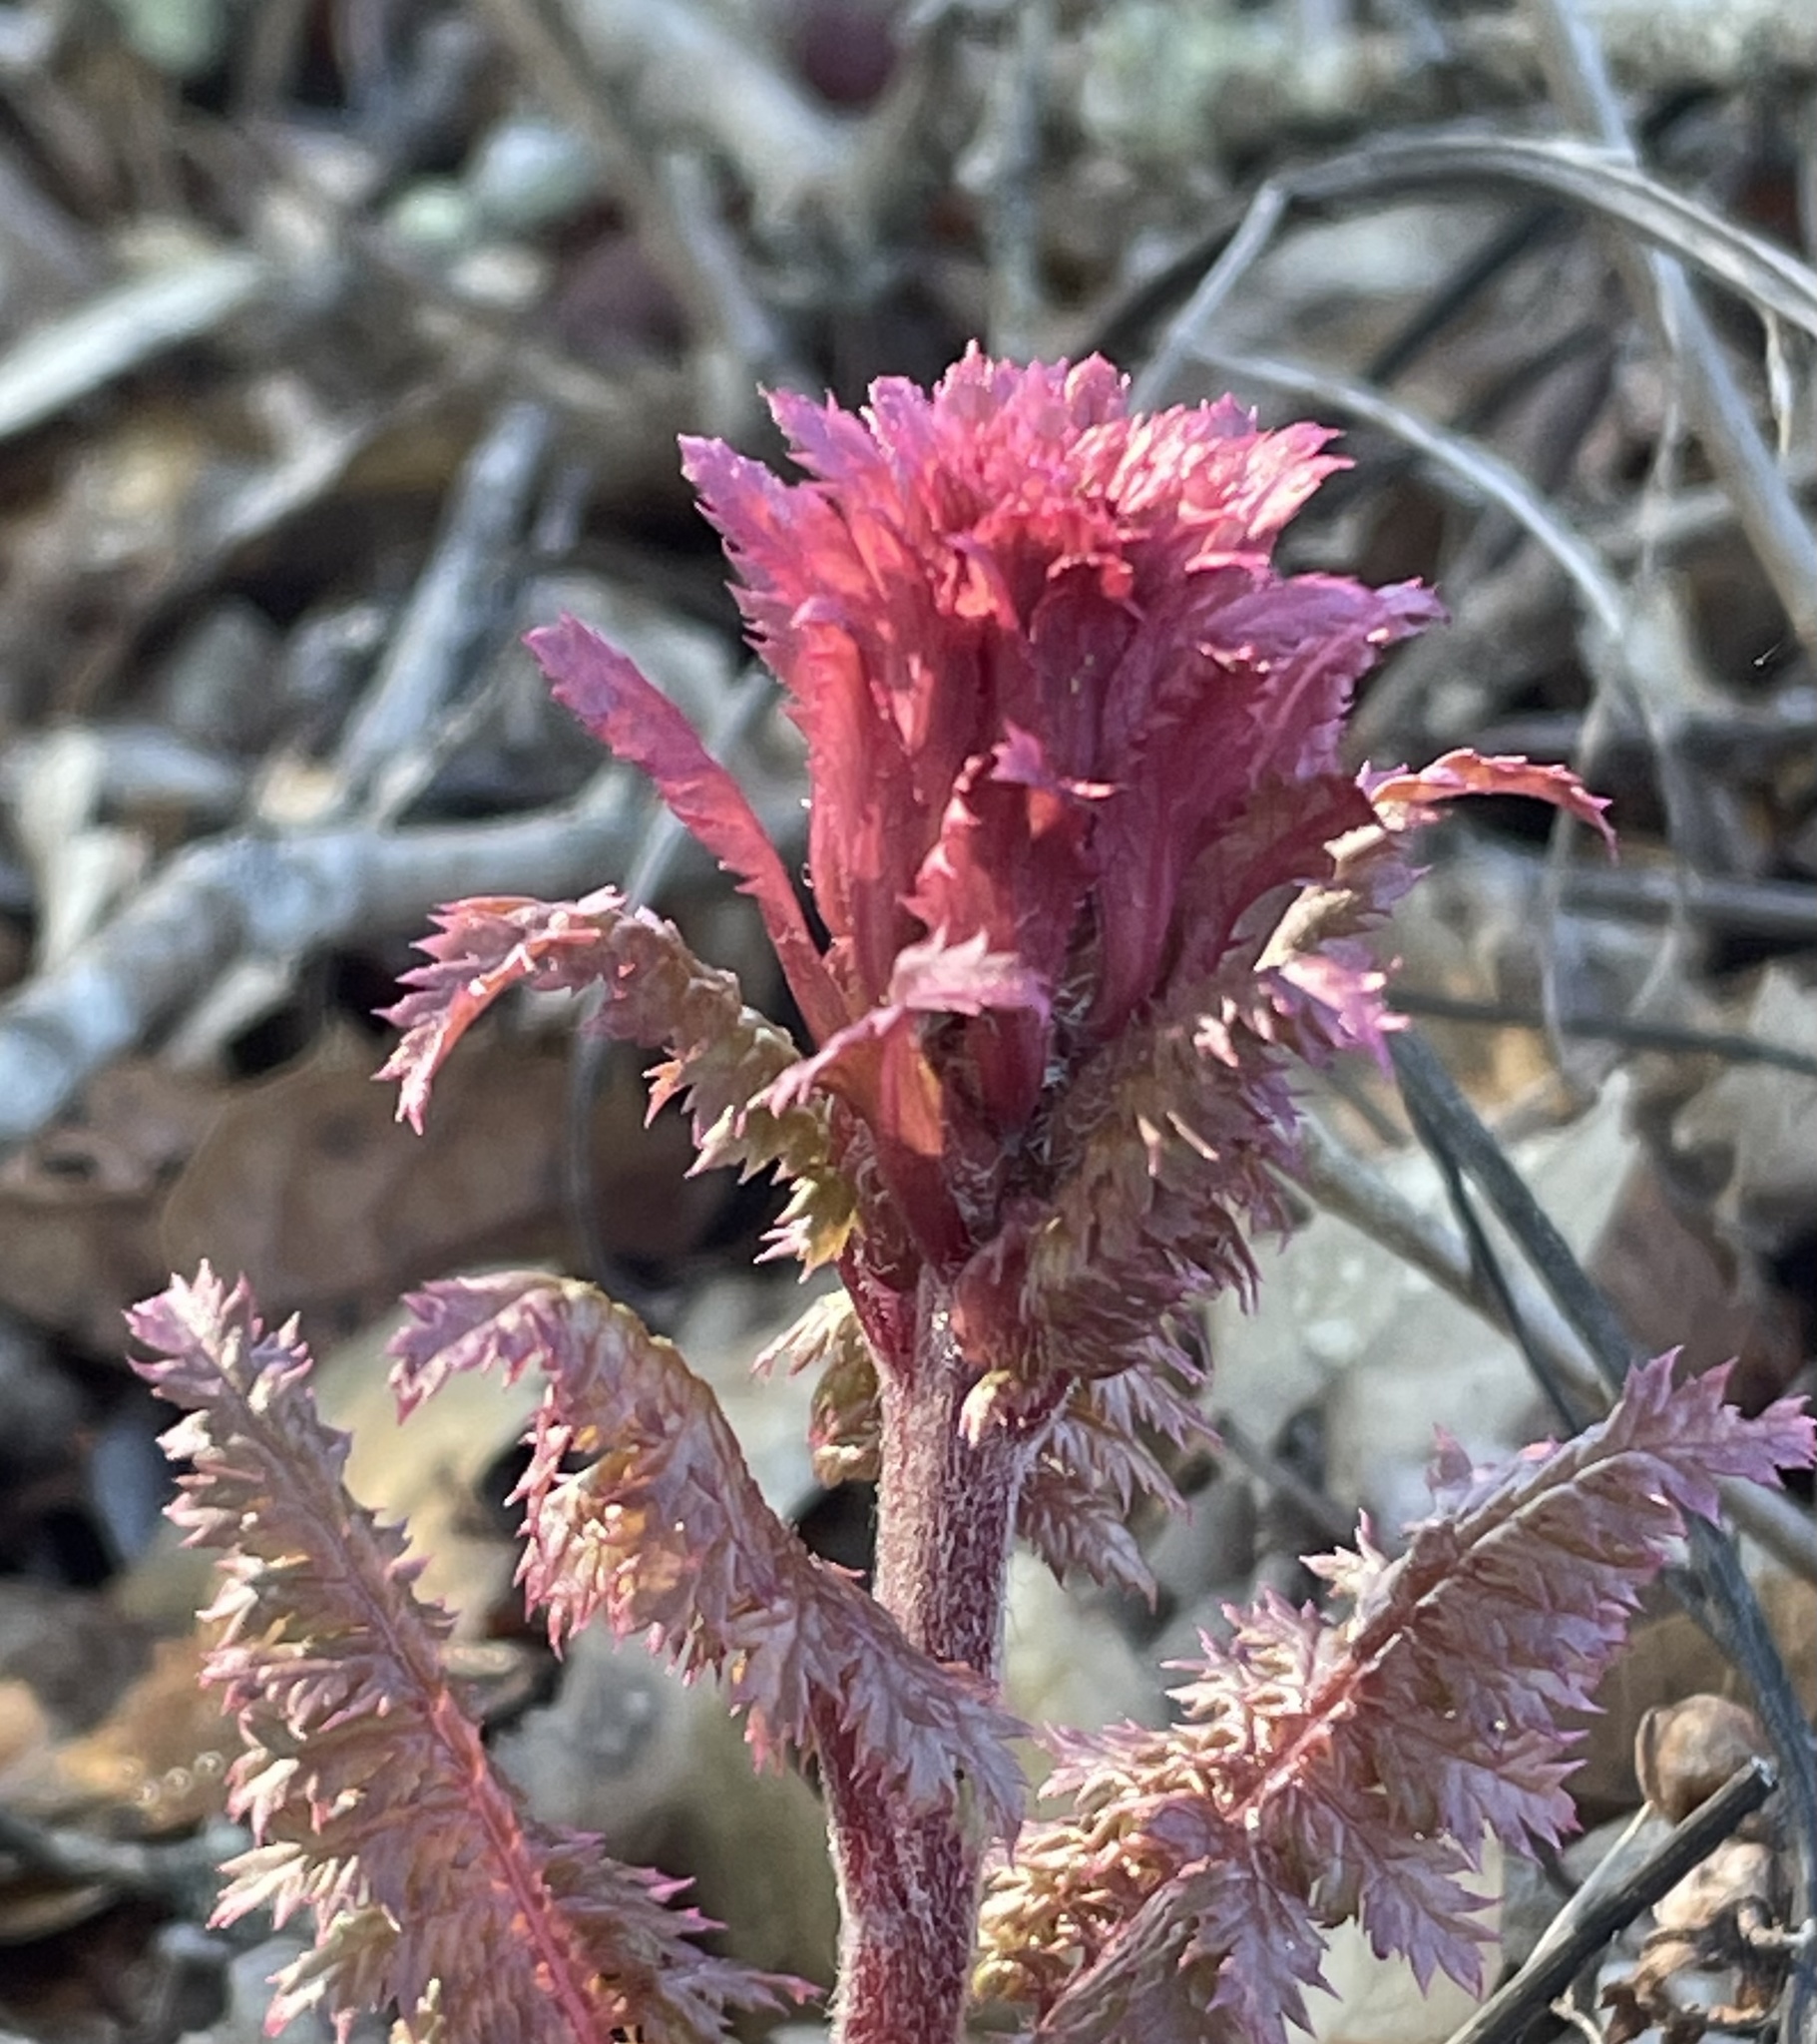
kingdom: Plantae
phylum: Tracheophyta
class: Magnoliopsida
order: Lamiales
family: Orobanchaceae
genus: Pedicularis
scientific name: Pedicularis densiflora
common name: Indian warrior
